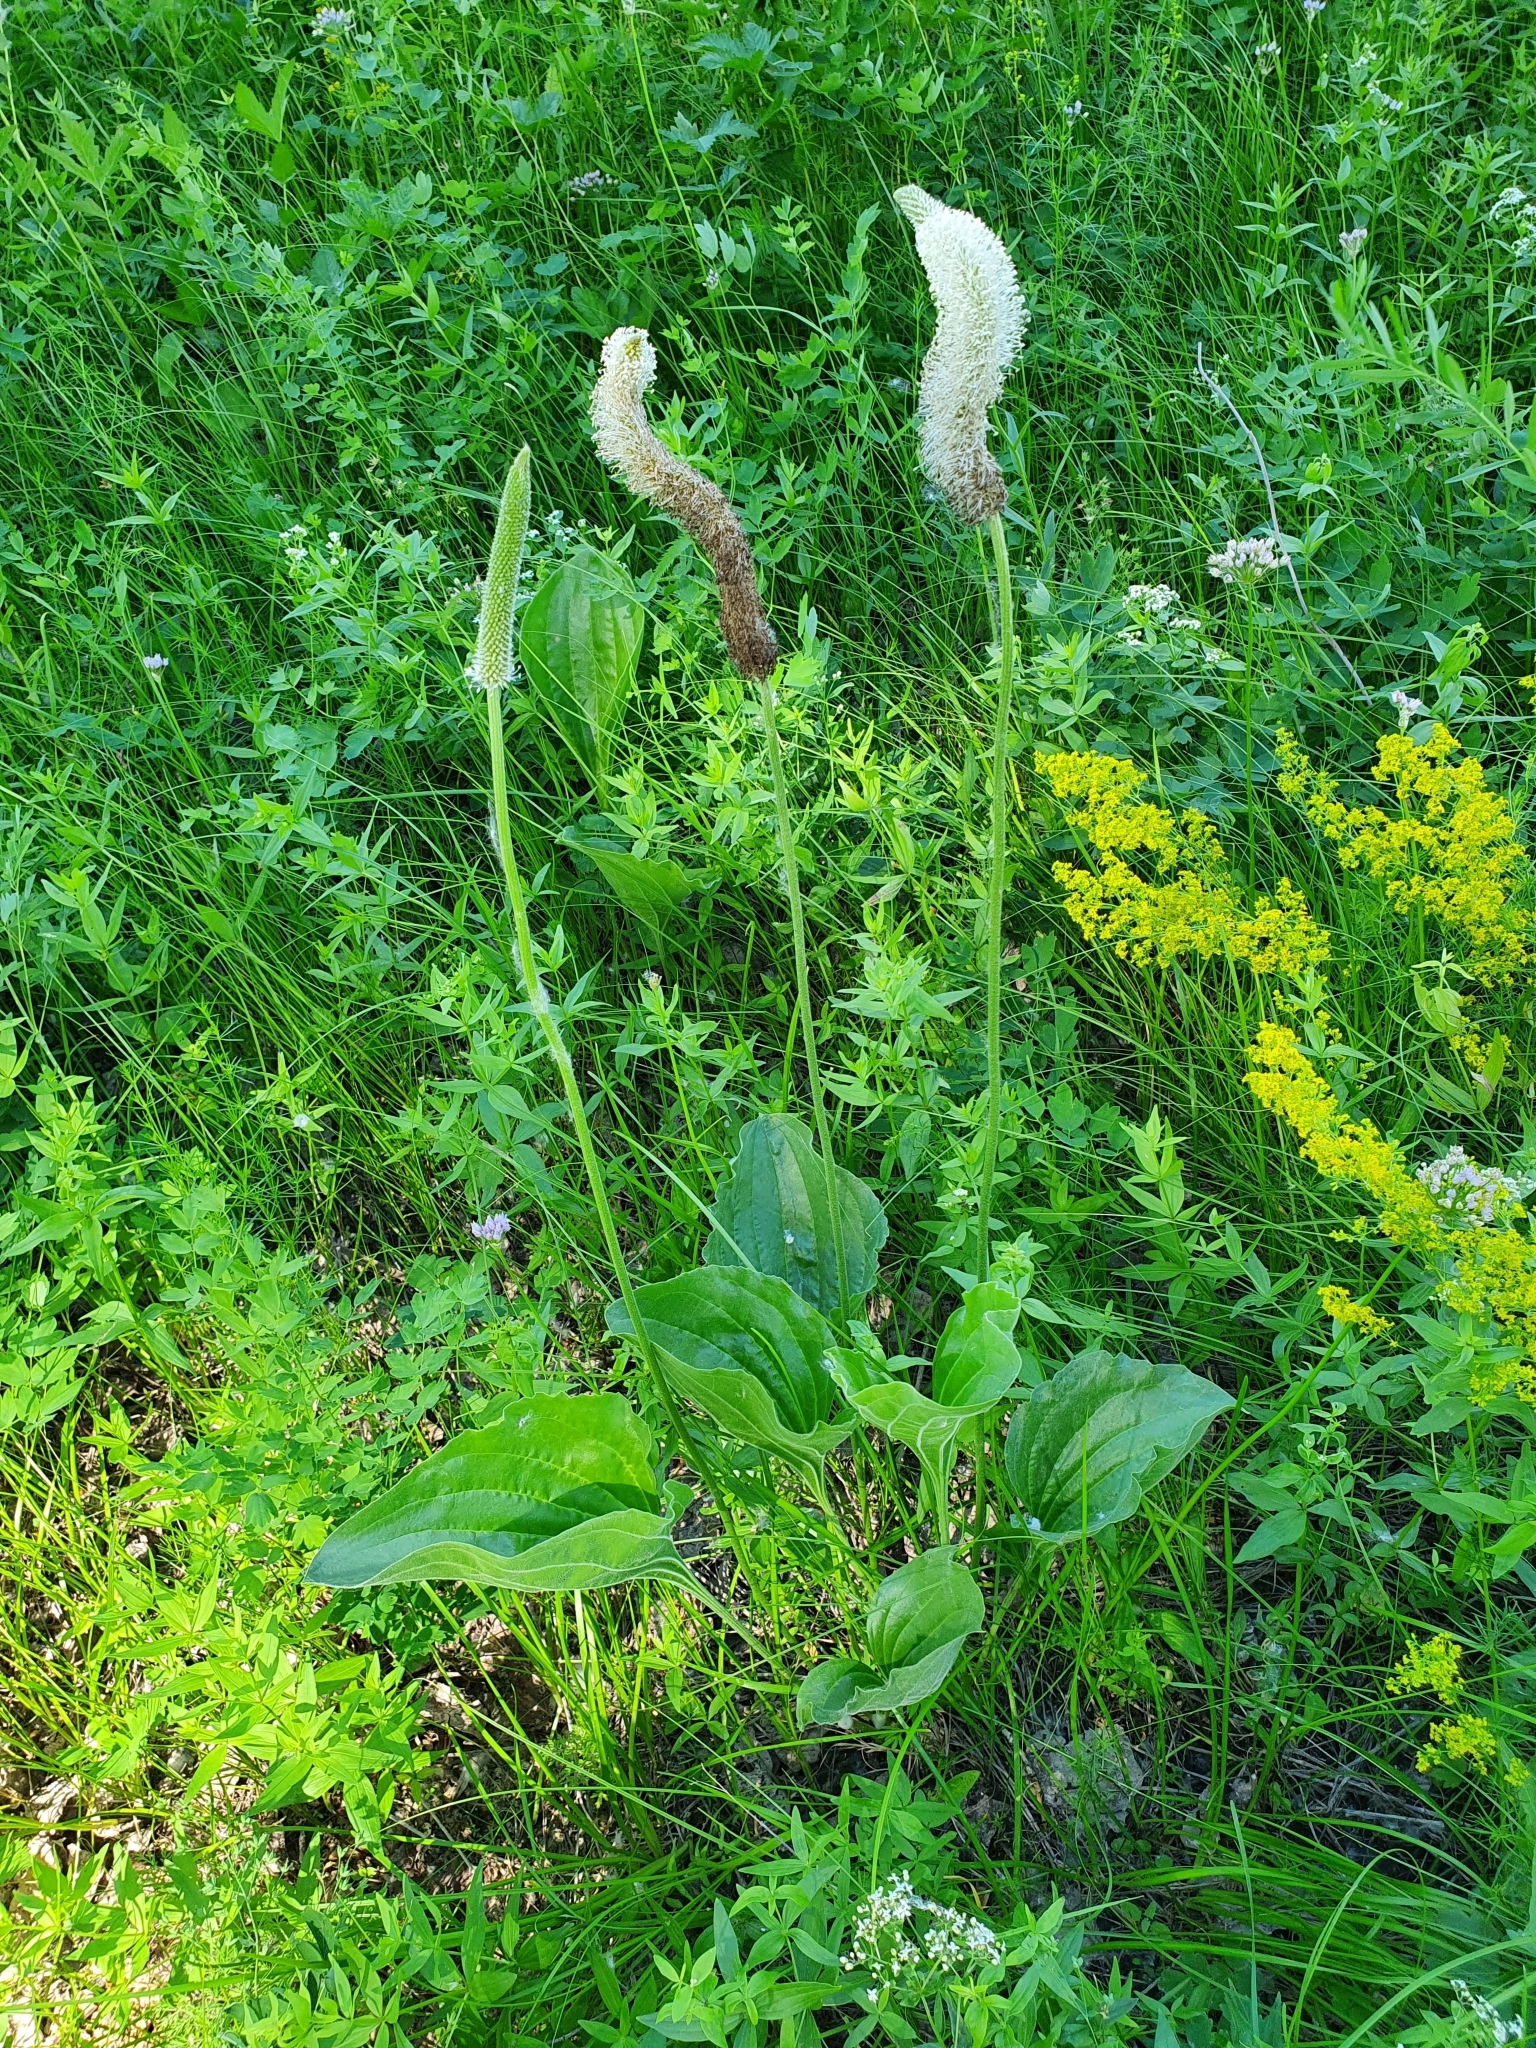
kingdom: Plantae
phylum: Tracheophyta
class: Magnoliopsida
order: Lamiales
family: Plantaginaceae
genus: Plantago
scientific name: Plantago maxima
